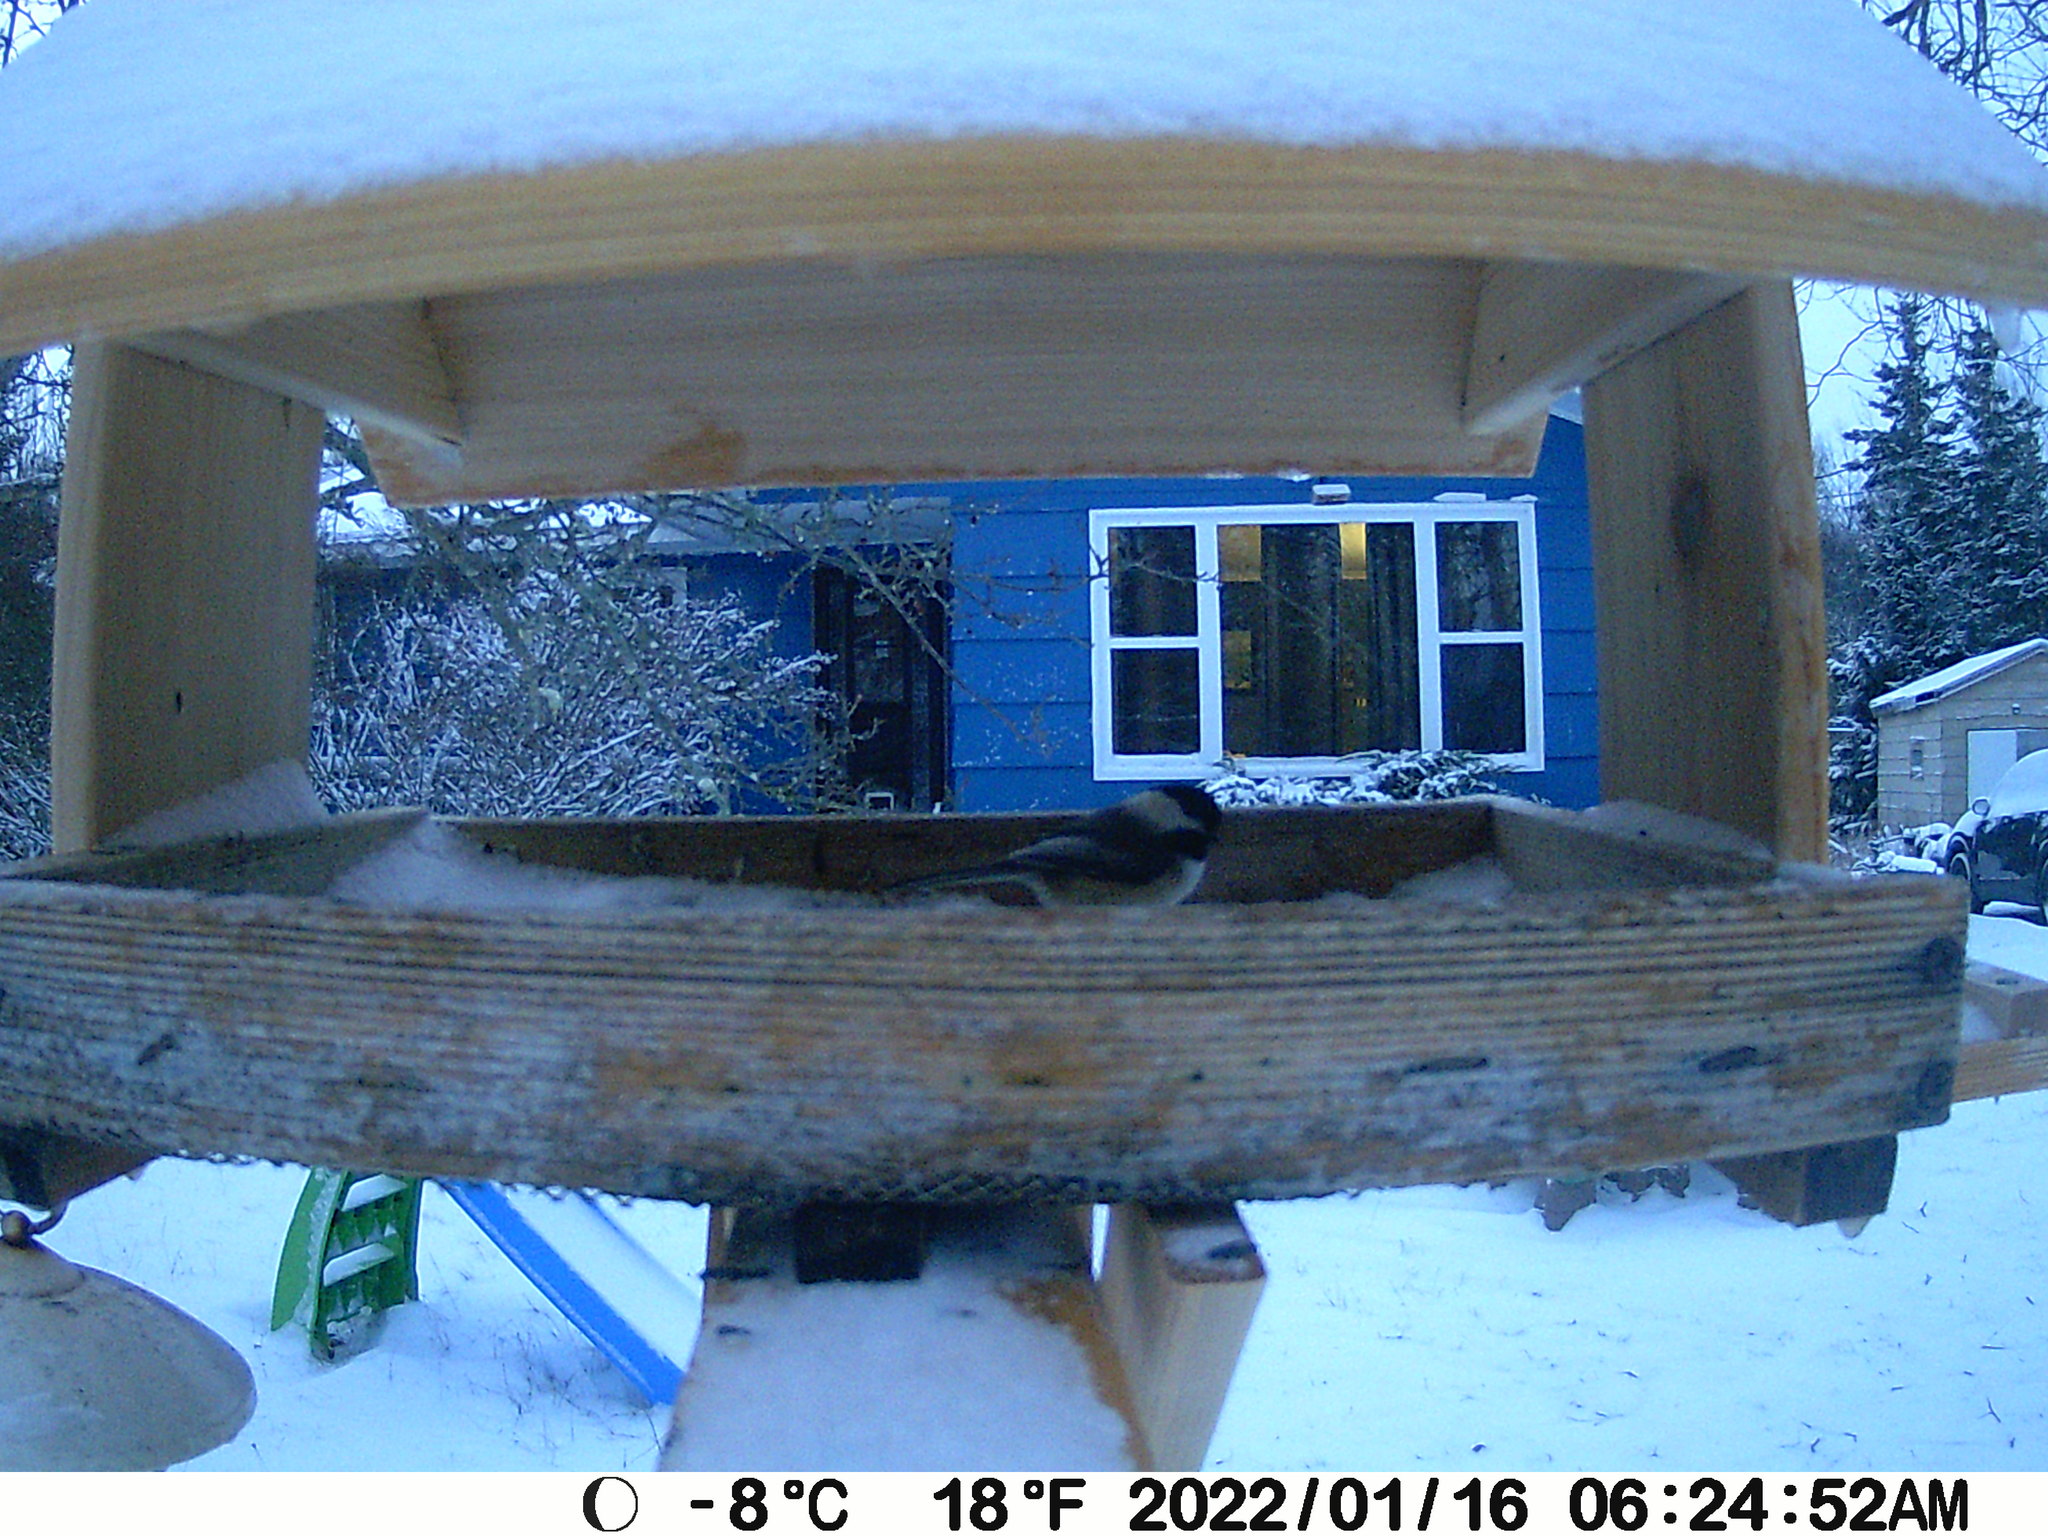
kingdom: Animalia
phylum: Chordata
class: Aves
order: Passeriformes
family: Paridae
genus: Poecile
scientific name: Poecile atricapillus
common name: Black-capped chickadee
